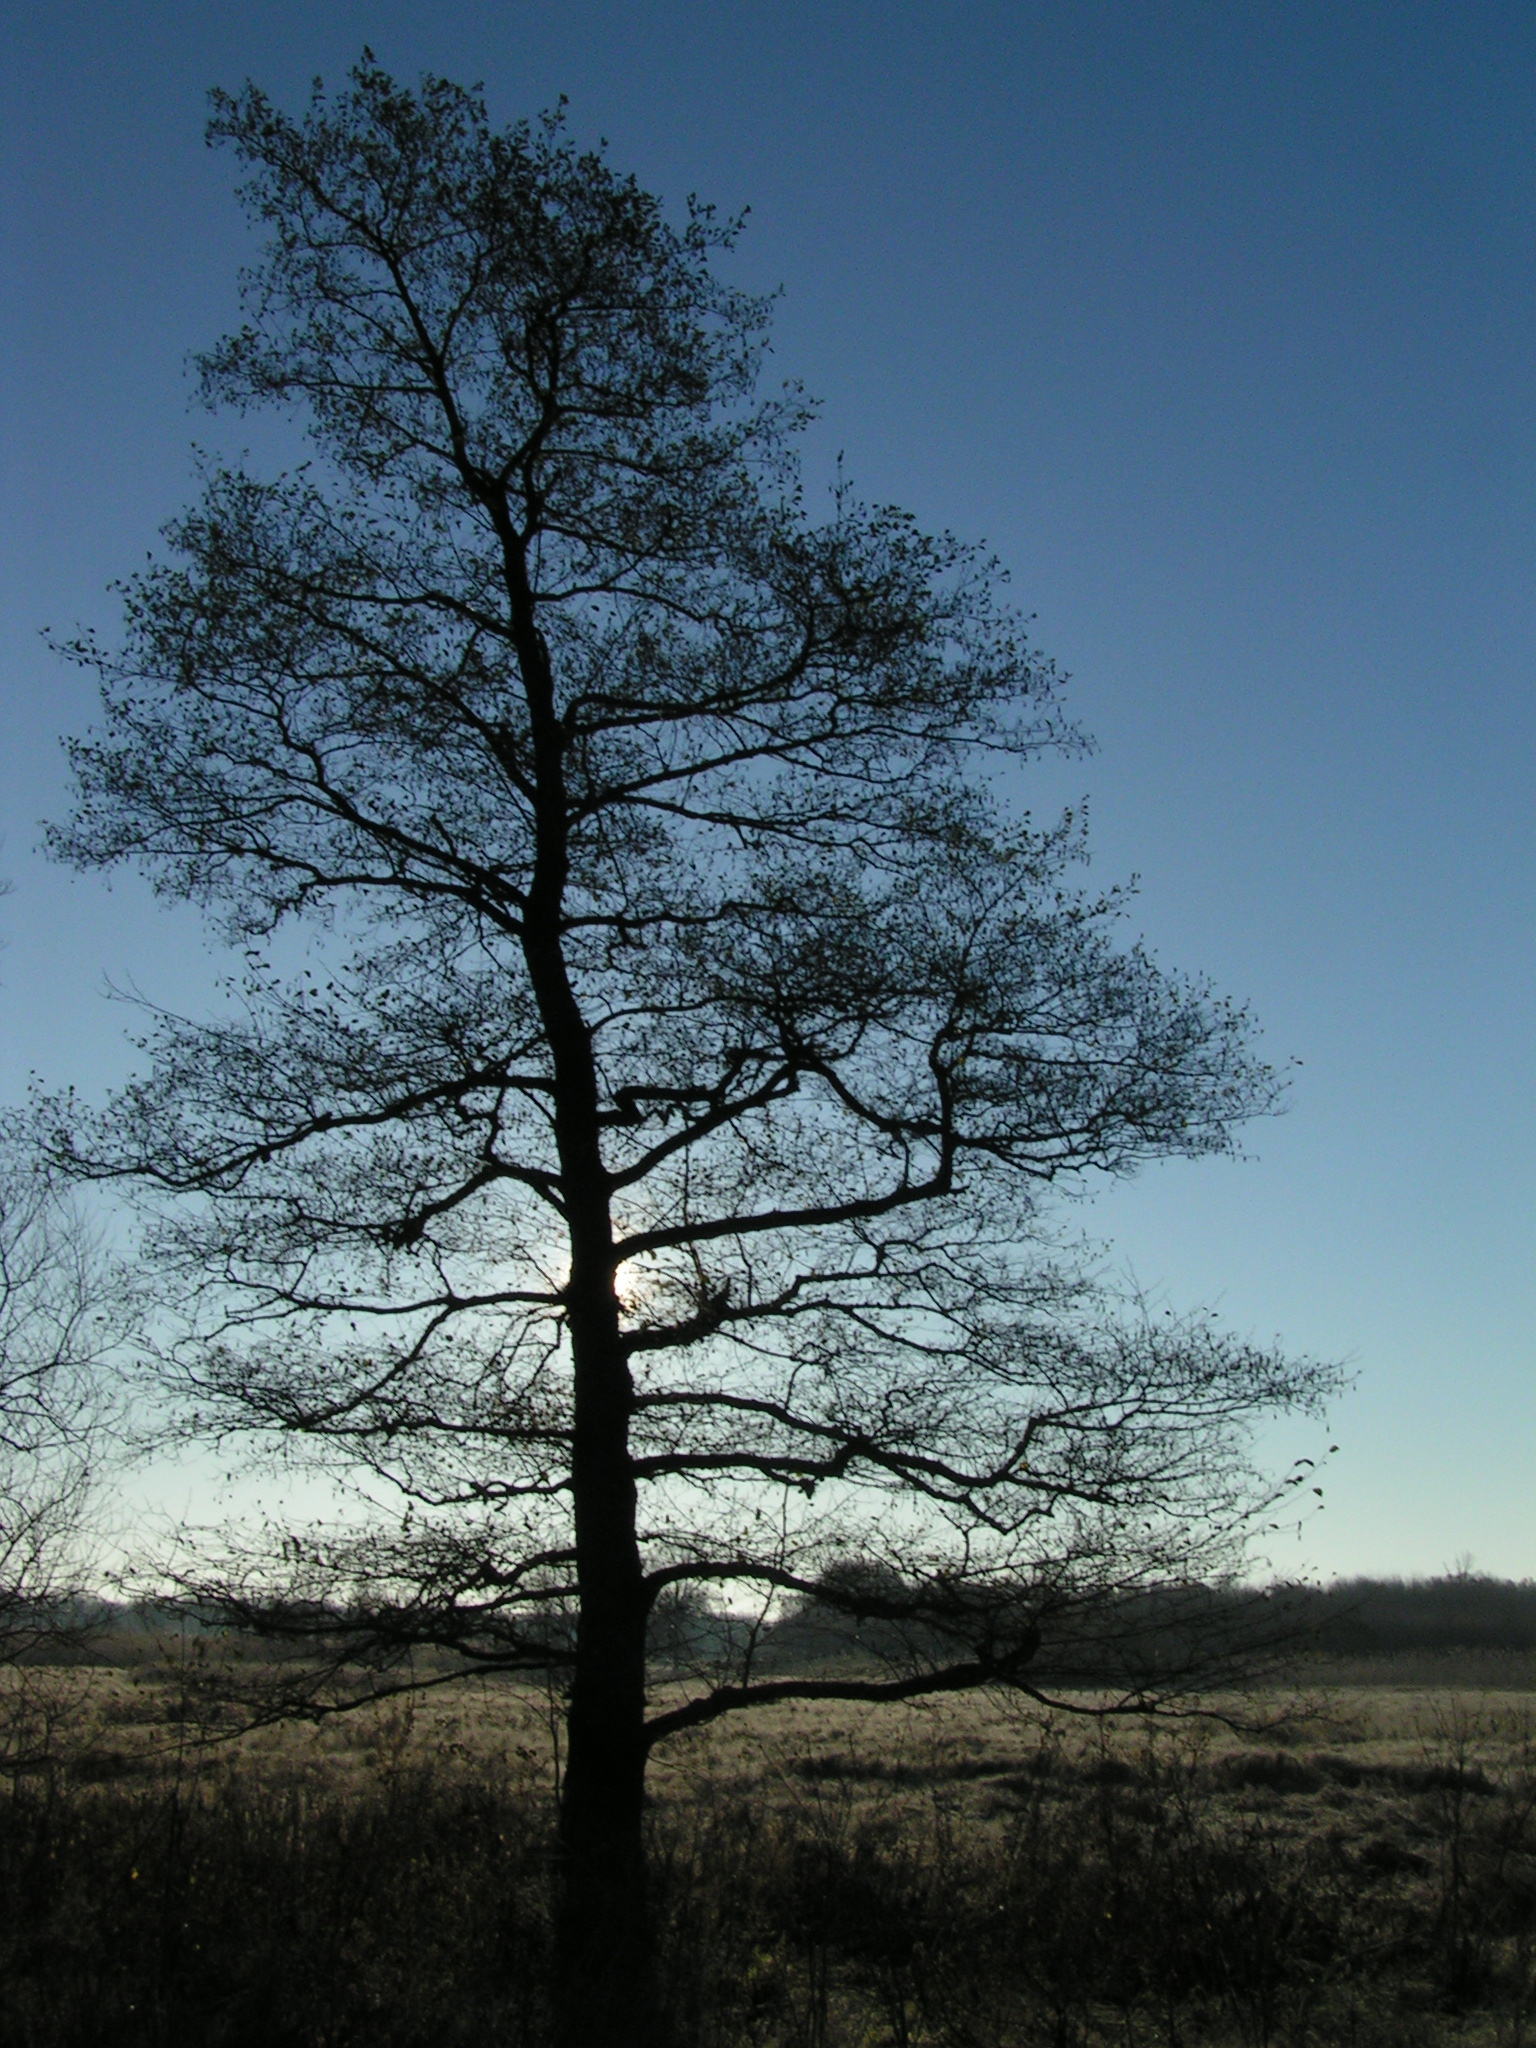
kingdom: Plantae
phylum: Tracheophyta
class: Magnoliopsida
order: Fagales
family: Betulaceae
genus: Alnus
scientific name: Alnus glutinosa
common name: Black alder
